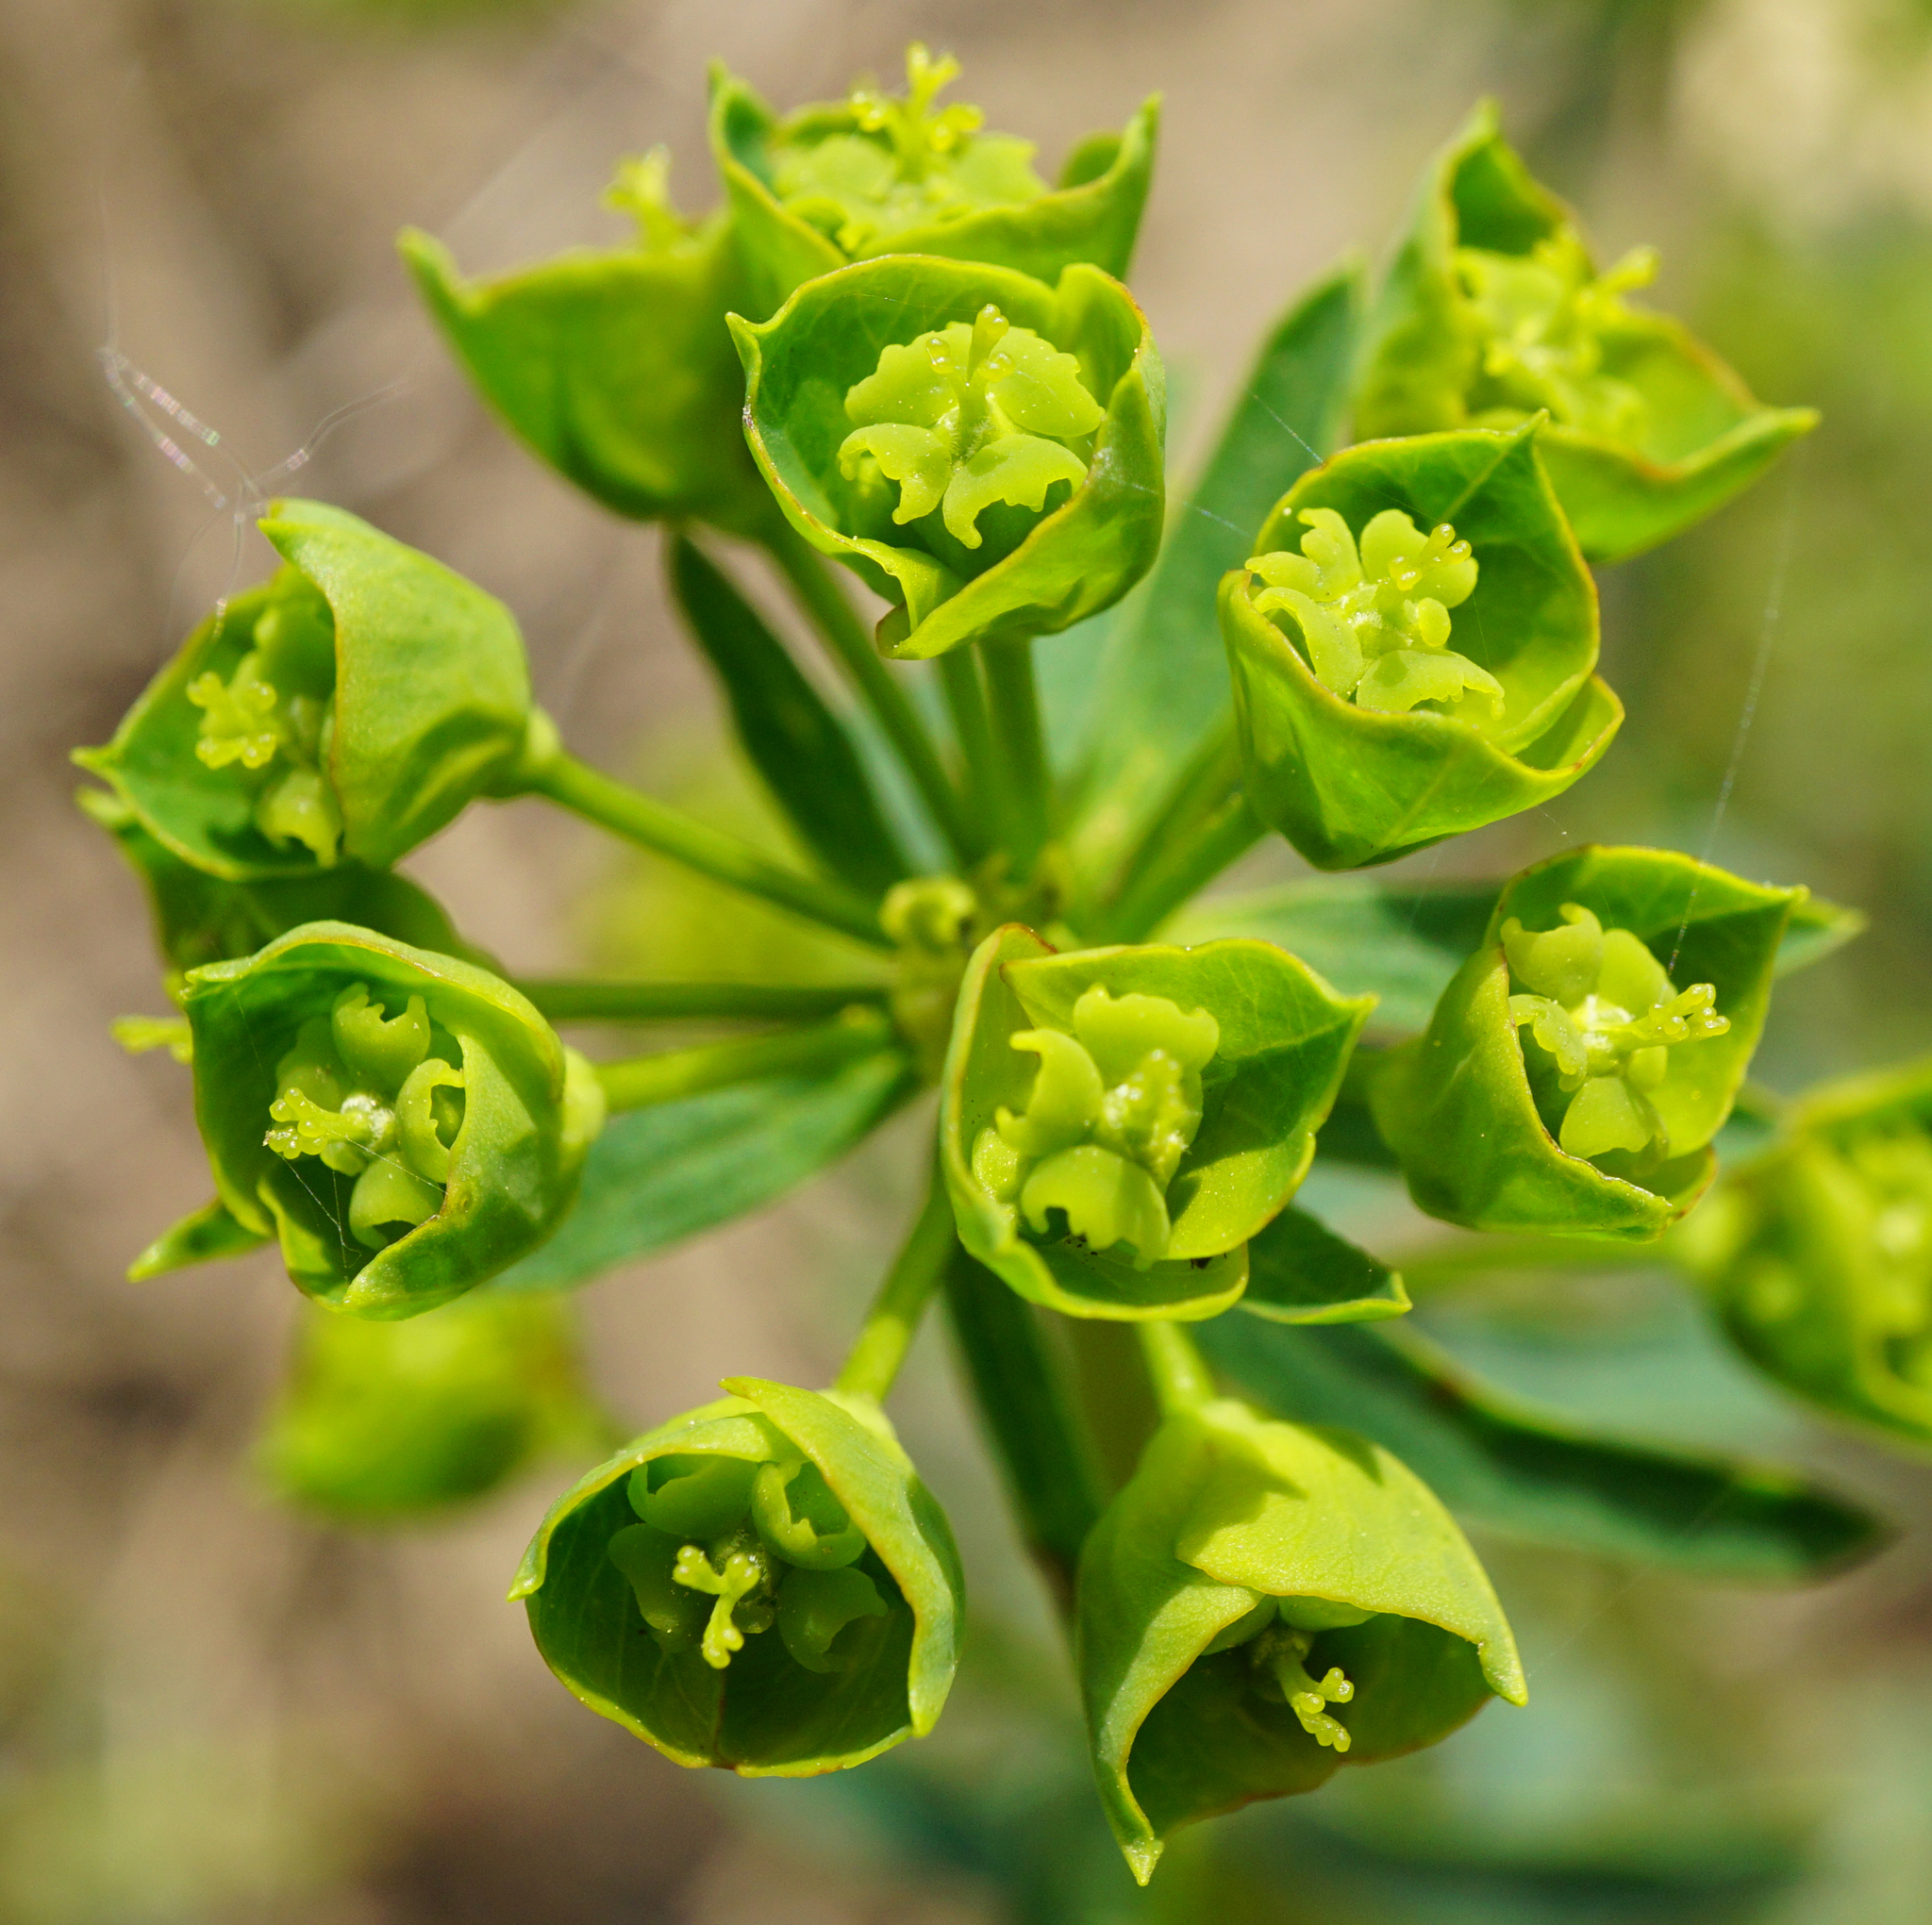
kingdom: Plantae
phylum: Tracheophyta
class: Magnoliopsida
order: Malpighiales
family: Euphorbiaceae
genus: Euphorbia
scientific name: Euphorbia esula
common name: Leafy spurge
